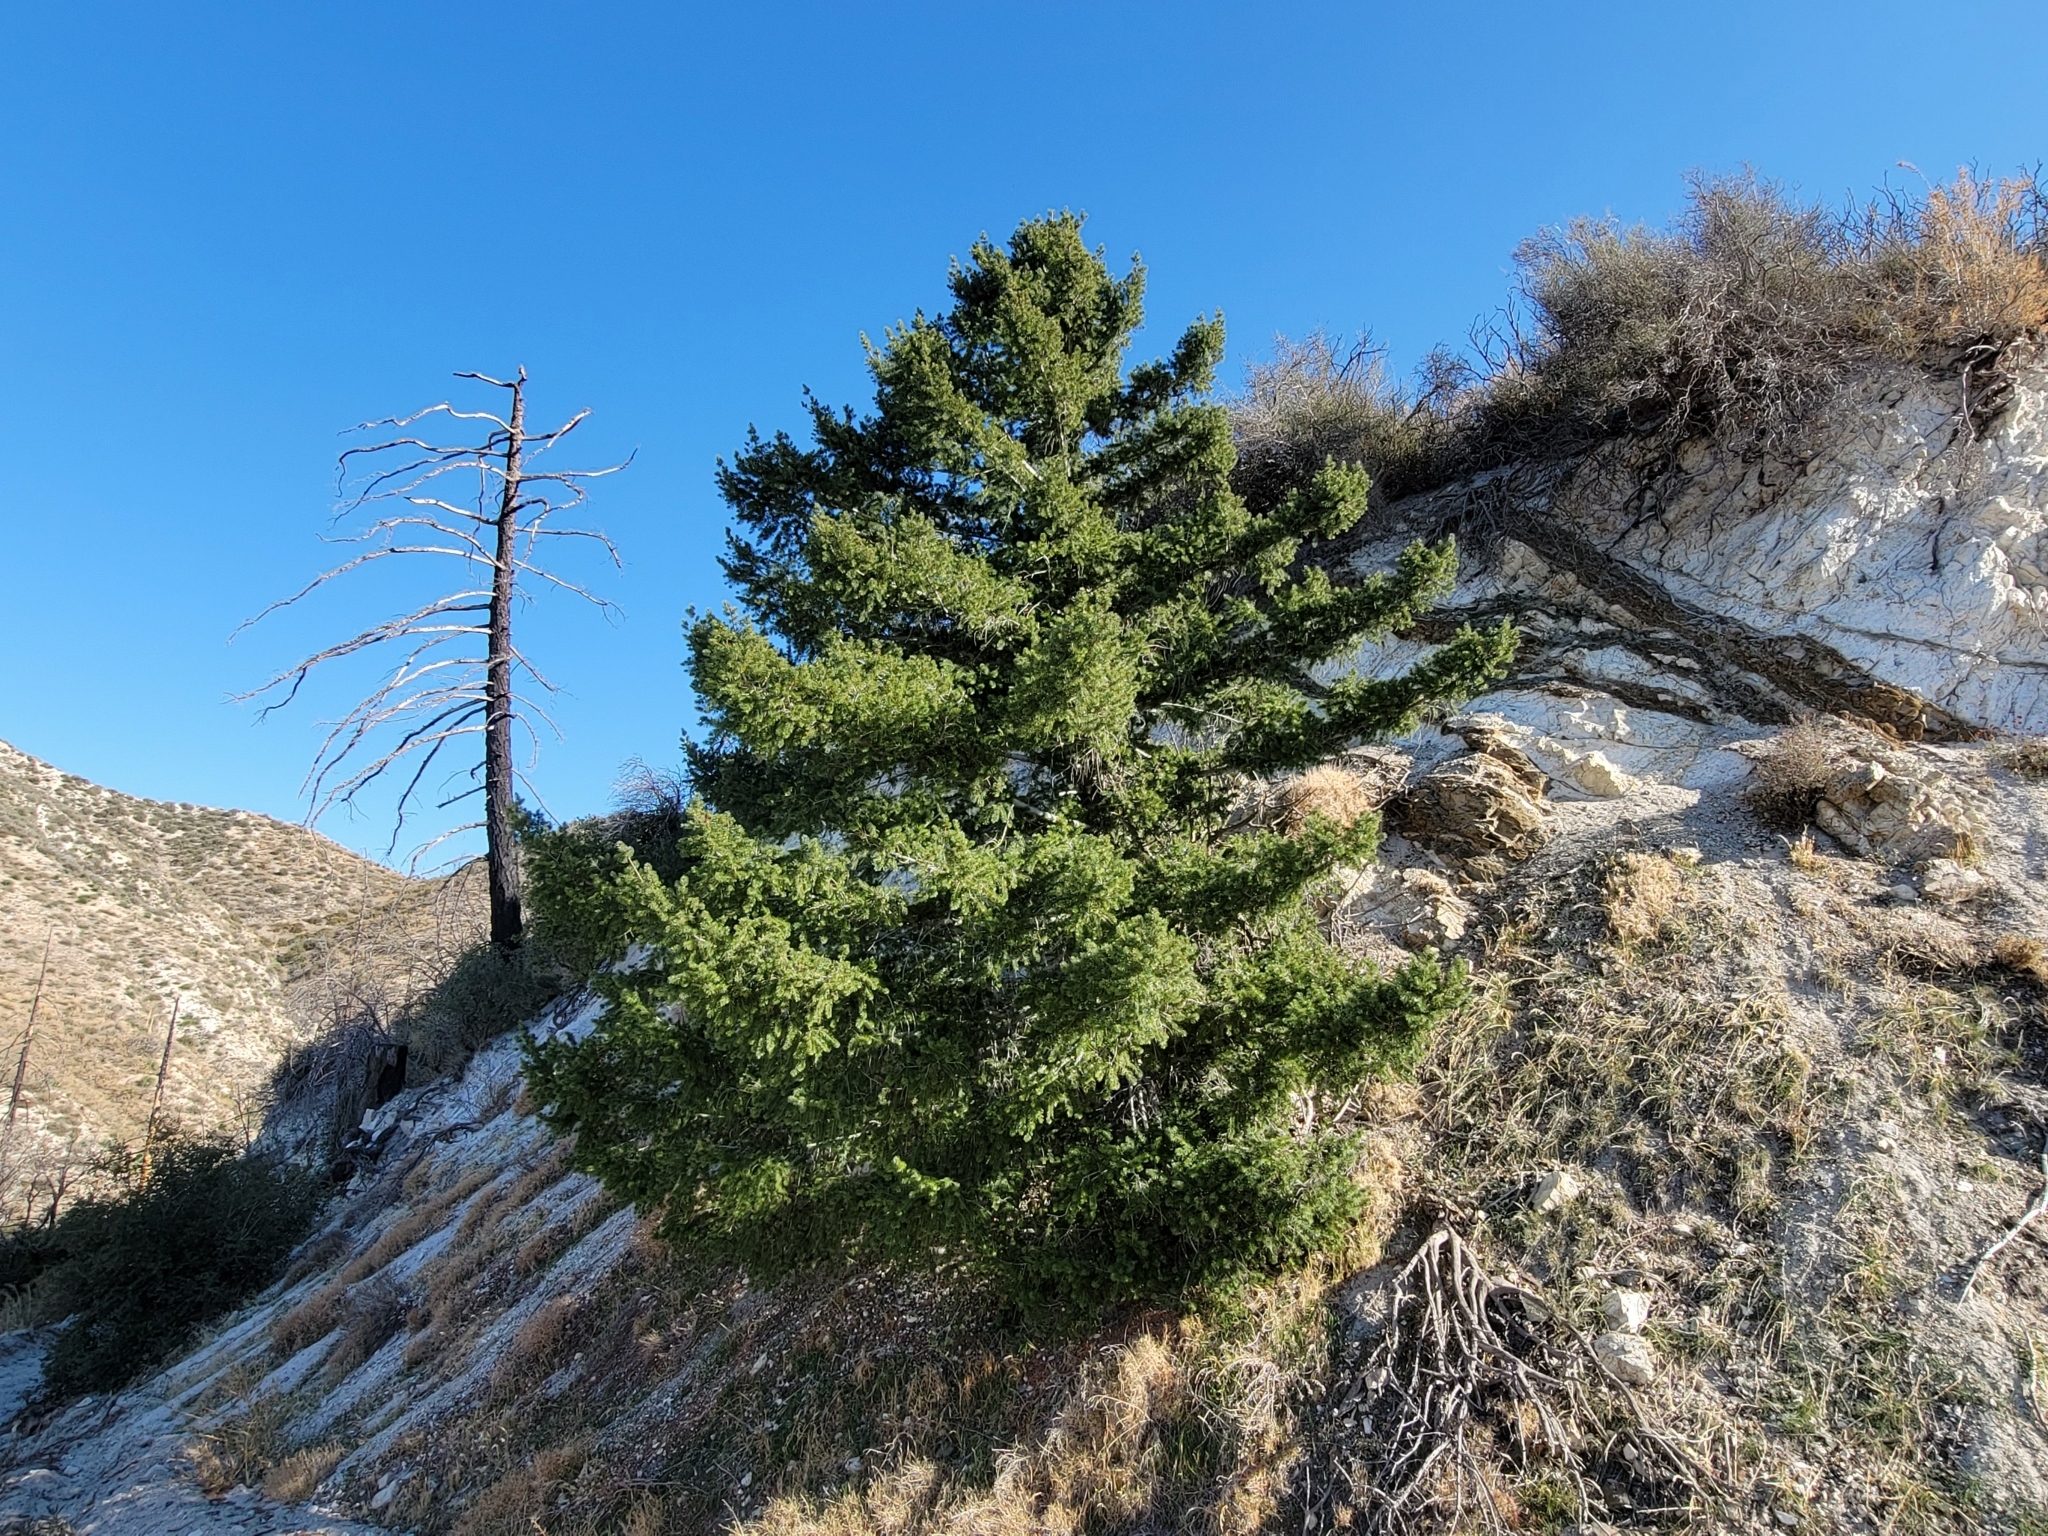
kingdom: Plantae
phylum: Tracheophyta
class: Pinopsida
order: Pinales
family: Pinaceae
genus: Pseudotsuga
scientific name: Pseudotsuga macrocarpa
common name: Big-cone douglas-fir
